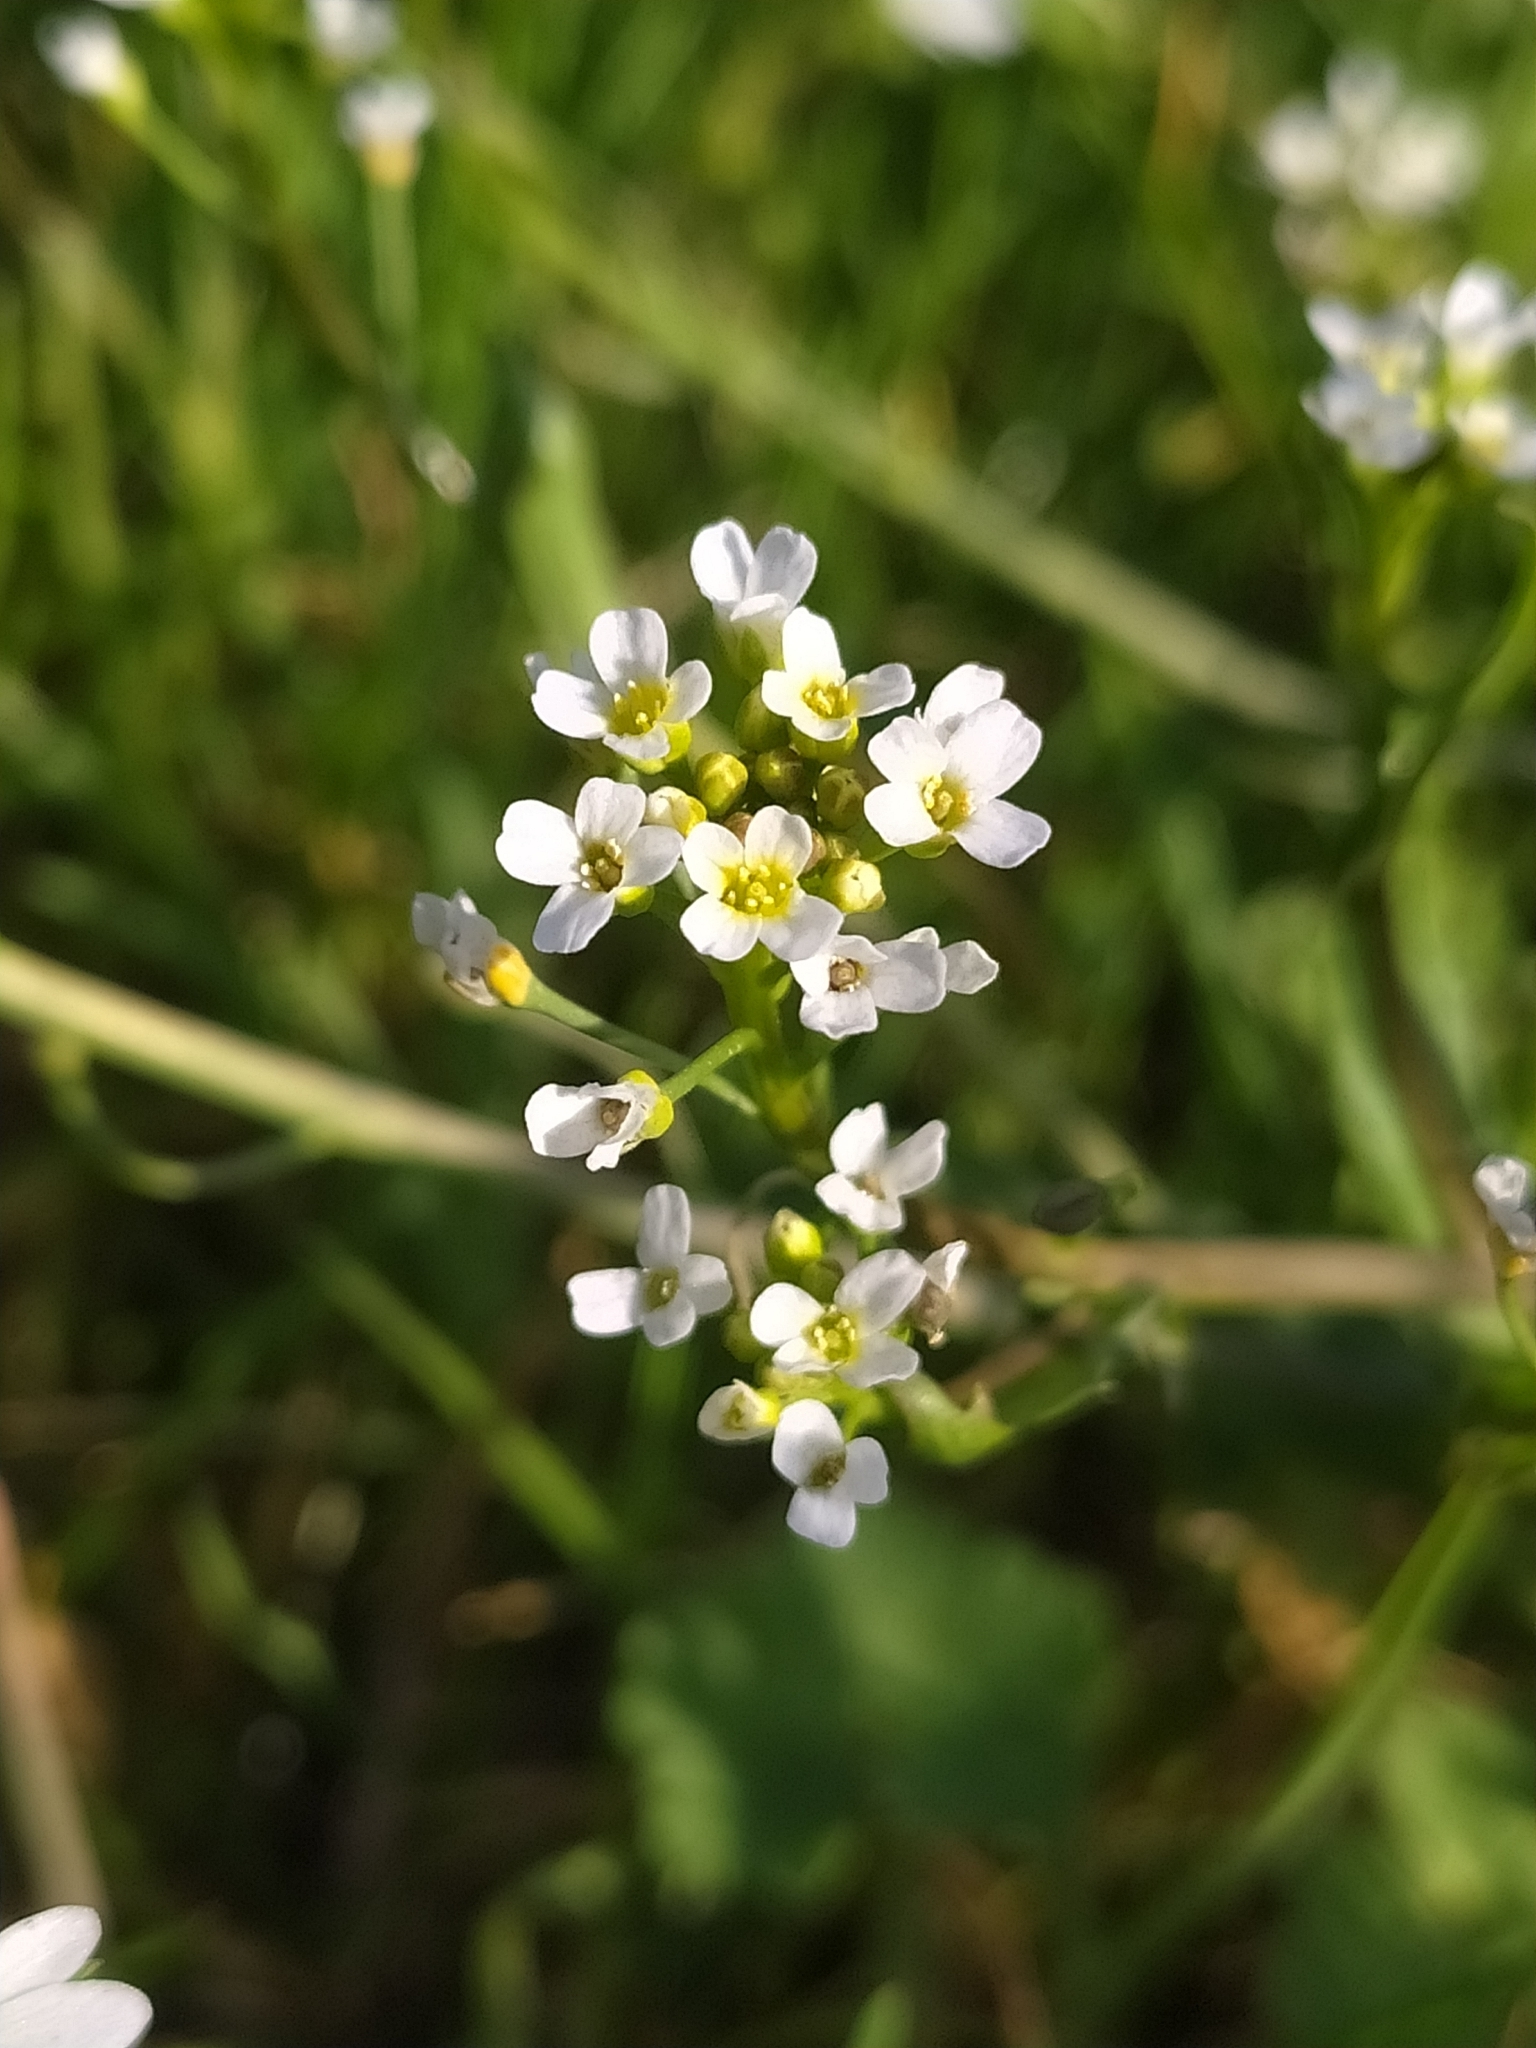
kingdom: Plantae
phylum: Tracheophyta
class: Magnoliopsida
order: Brassicales
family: Brassicaceae
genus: Capsella
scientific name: Capsella bursa-pastoris
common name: Shepherd's purse
